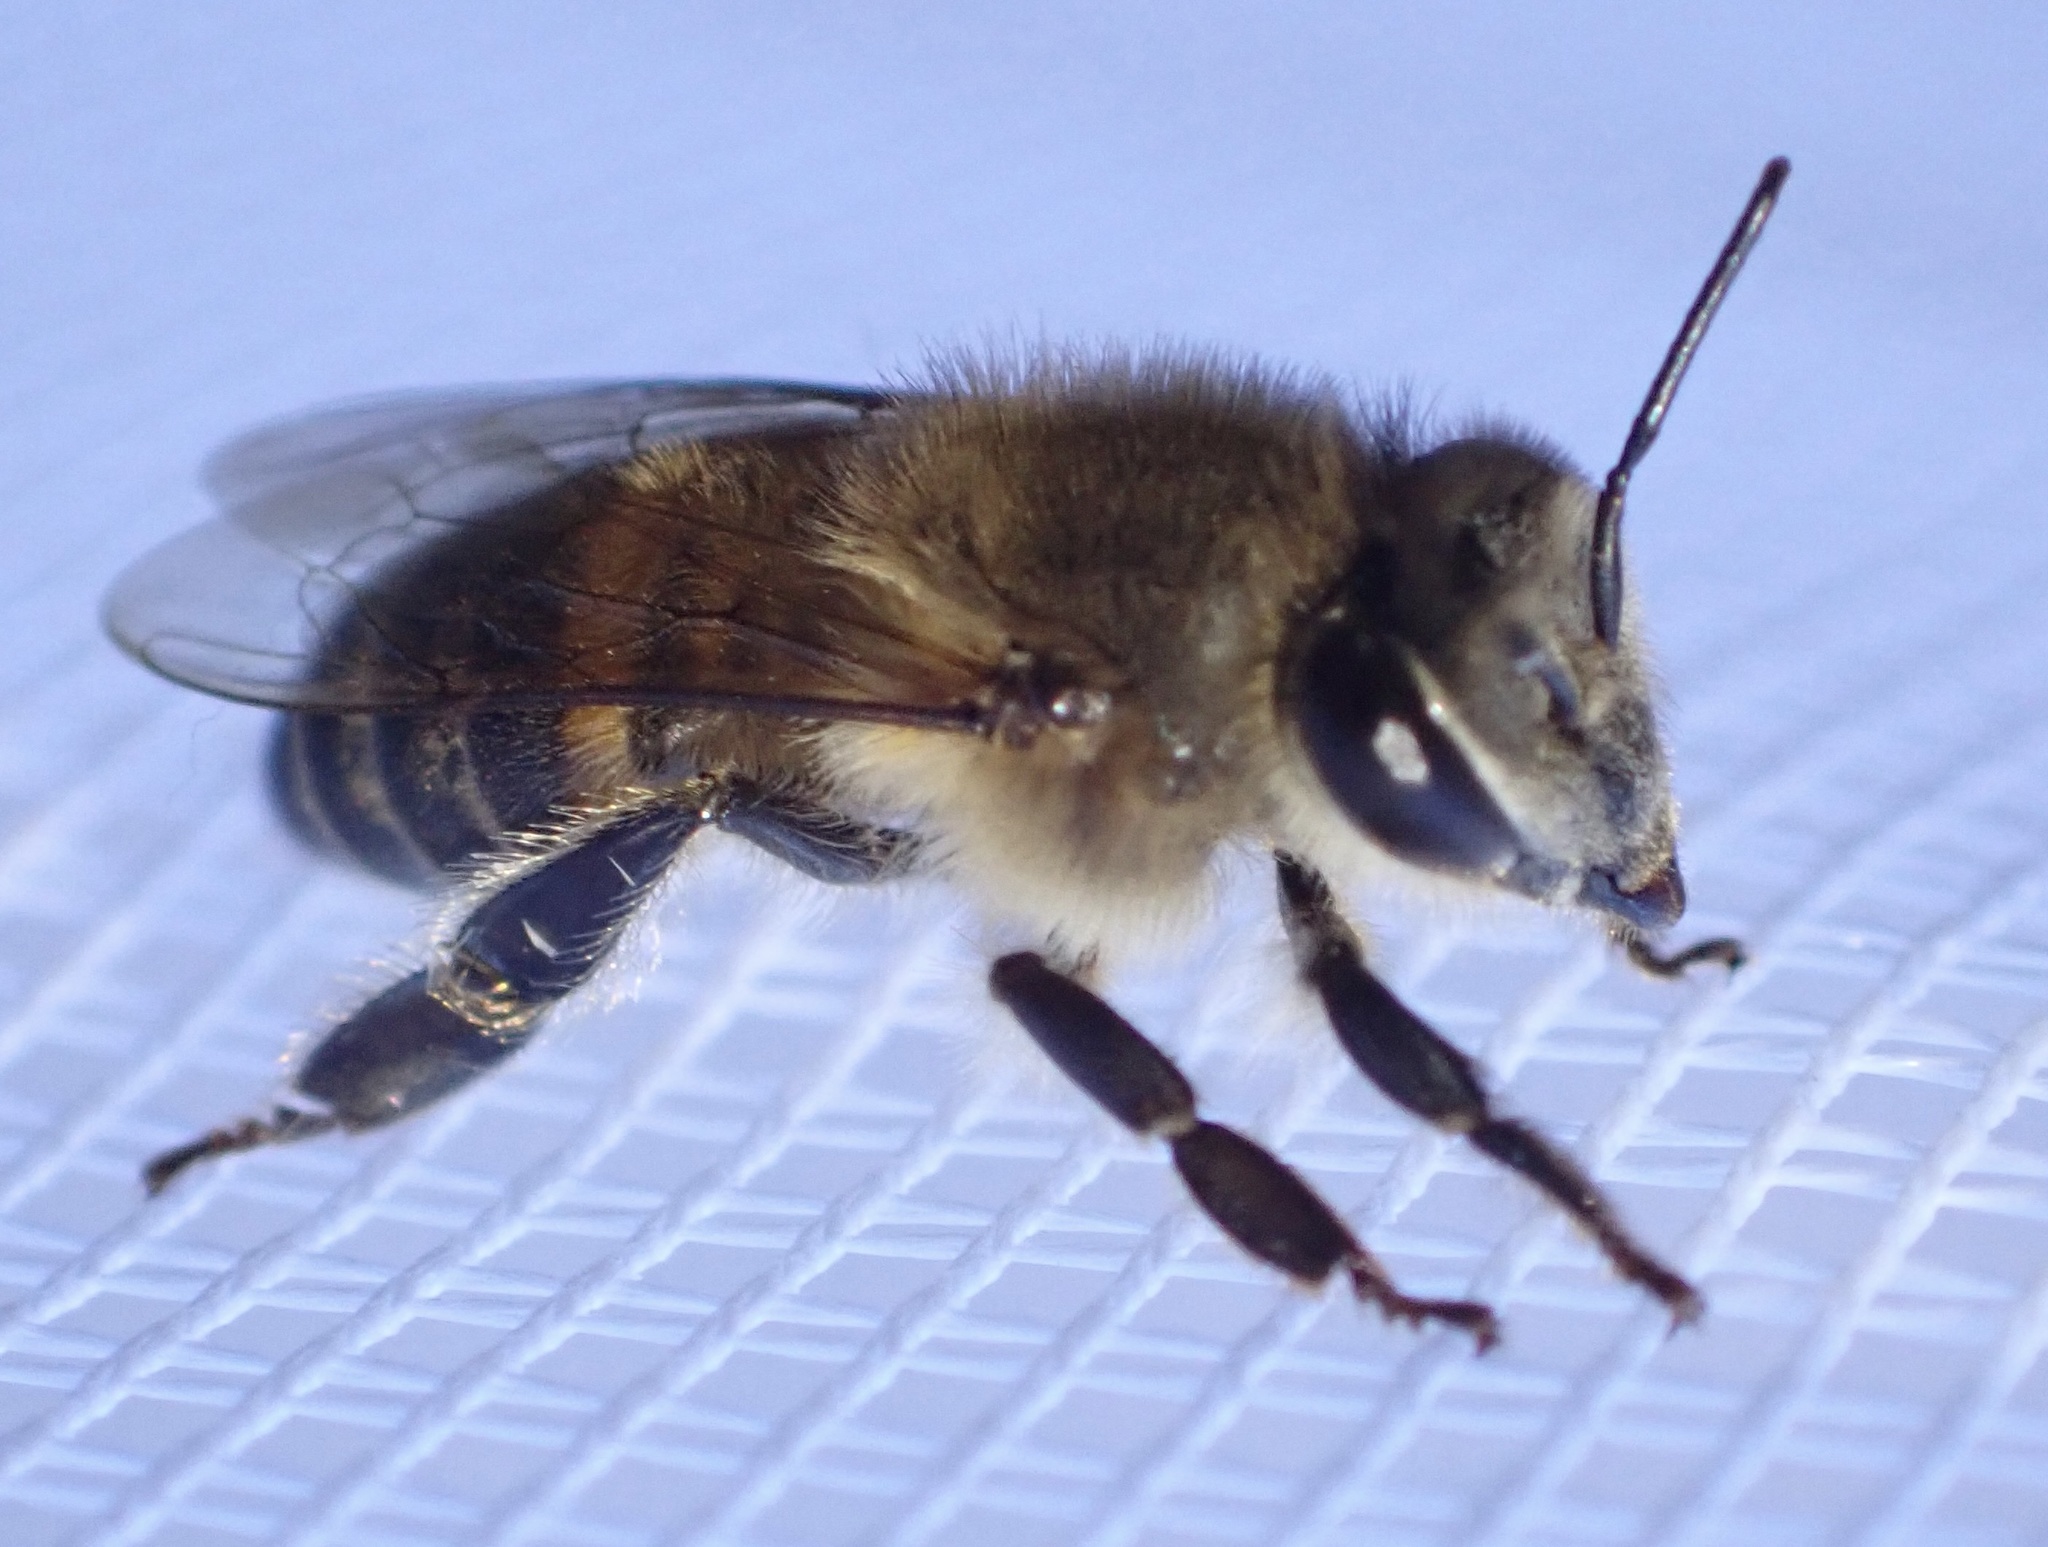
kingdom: Animalia
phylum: Arthropoda
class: Insecta
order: Hymenoptera
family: Apidae
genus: Apis
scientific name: Apis mellifera
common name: Honey bee
